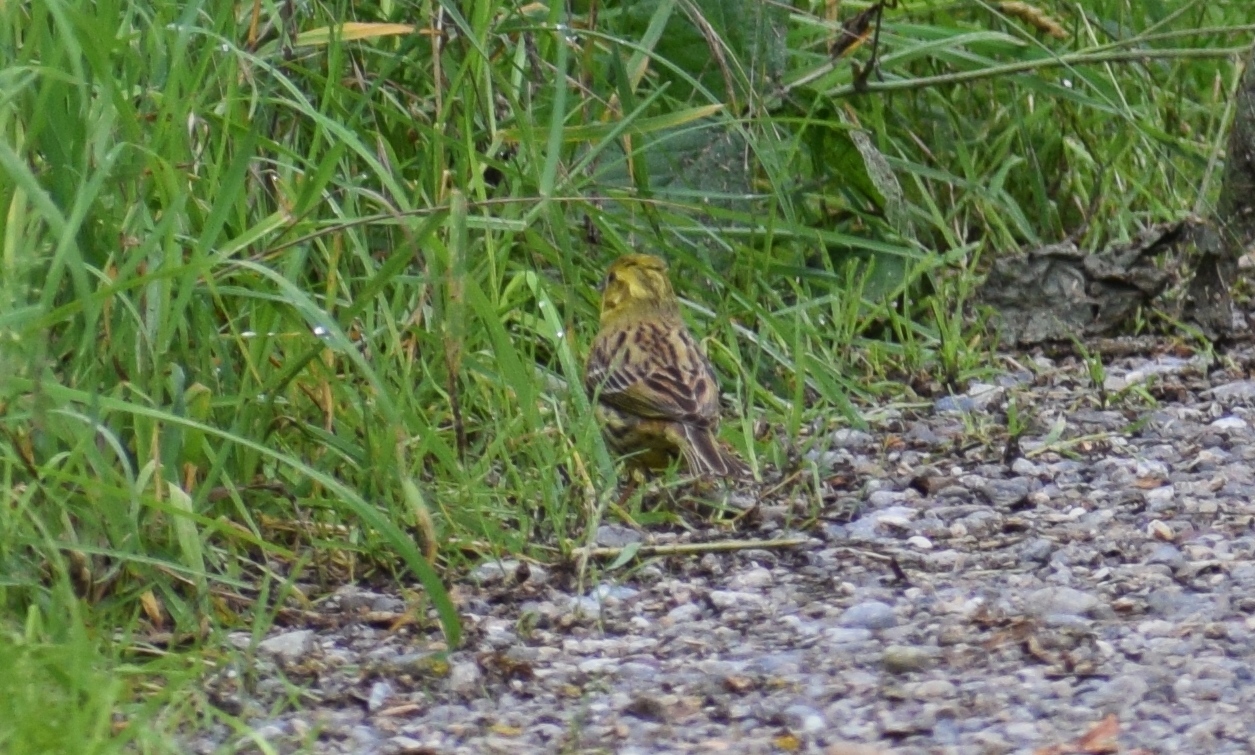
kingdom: Animalia
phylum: Chordata
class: Aves
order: Passeriformes
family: Emberizidae
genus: Emberiza
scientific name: Emberiza citrinella
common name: Yellowhammer
